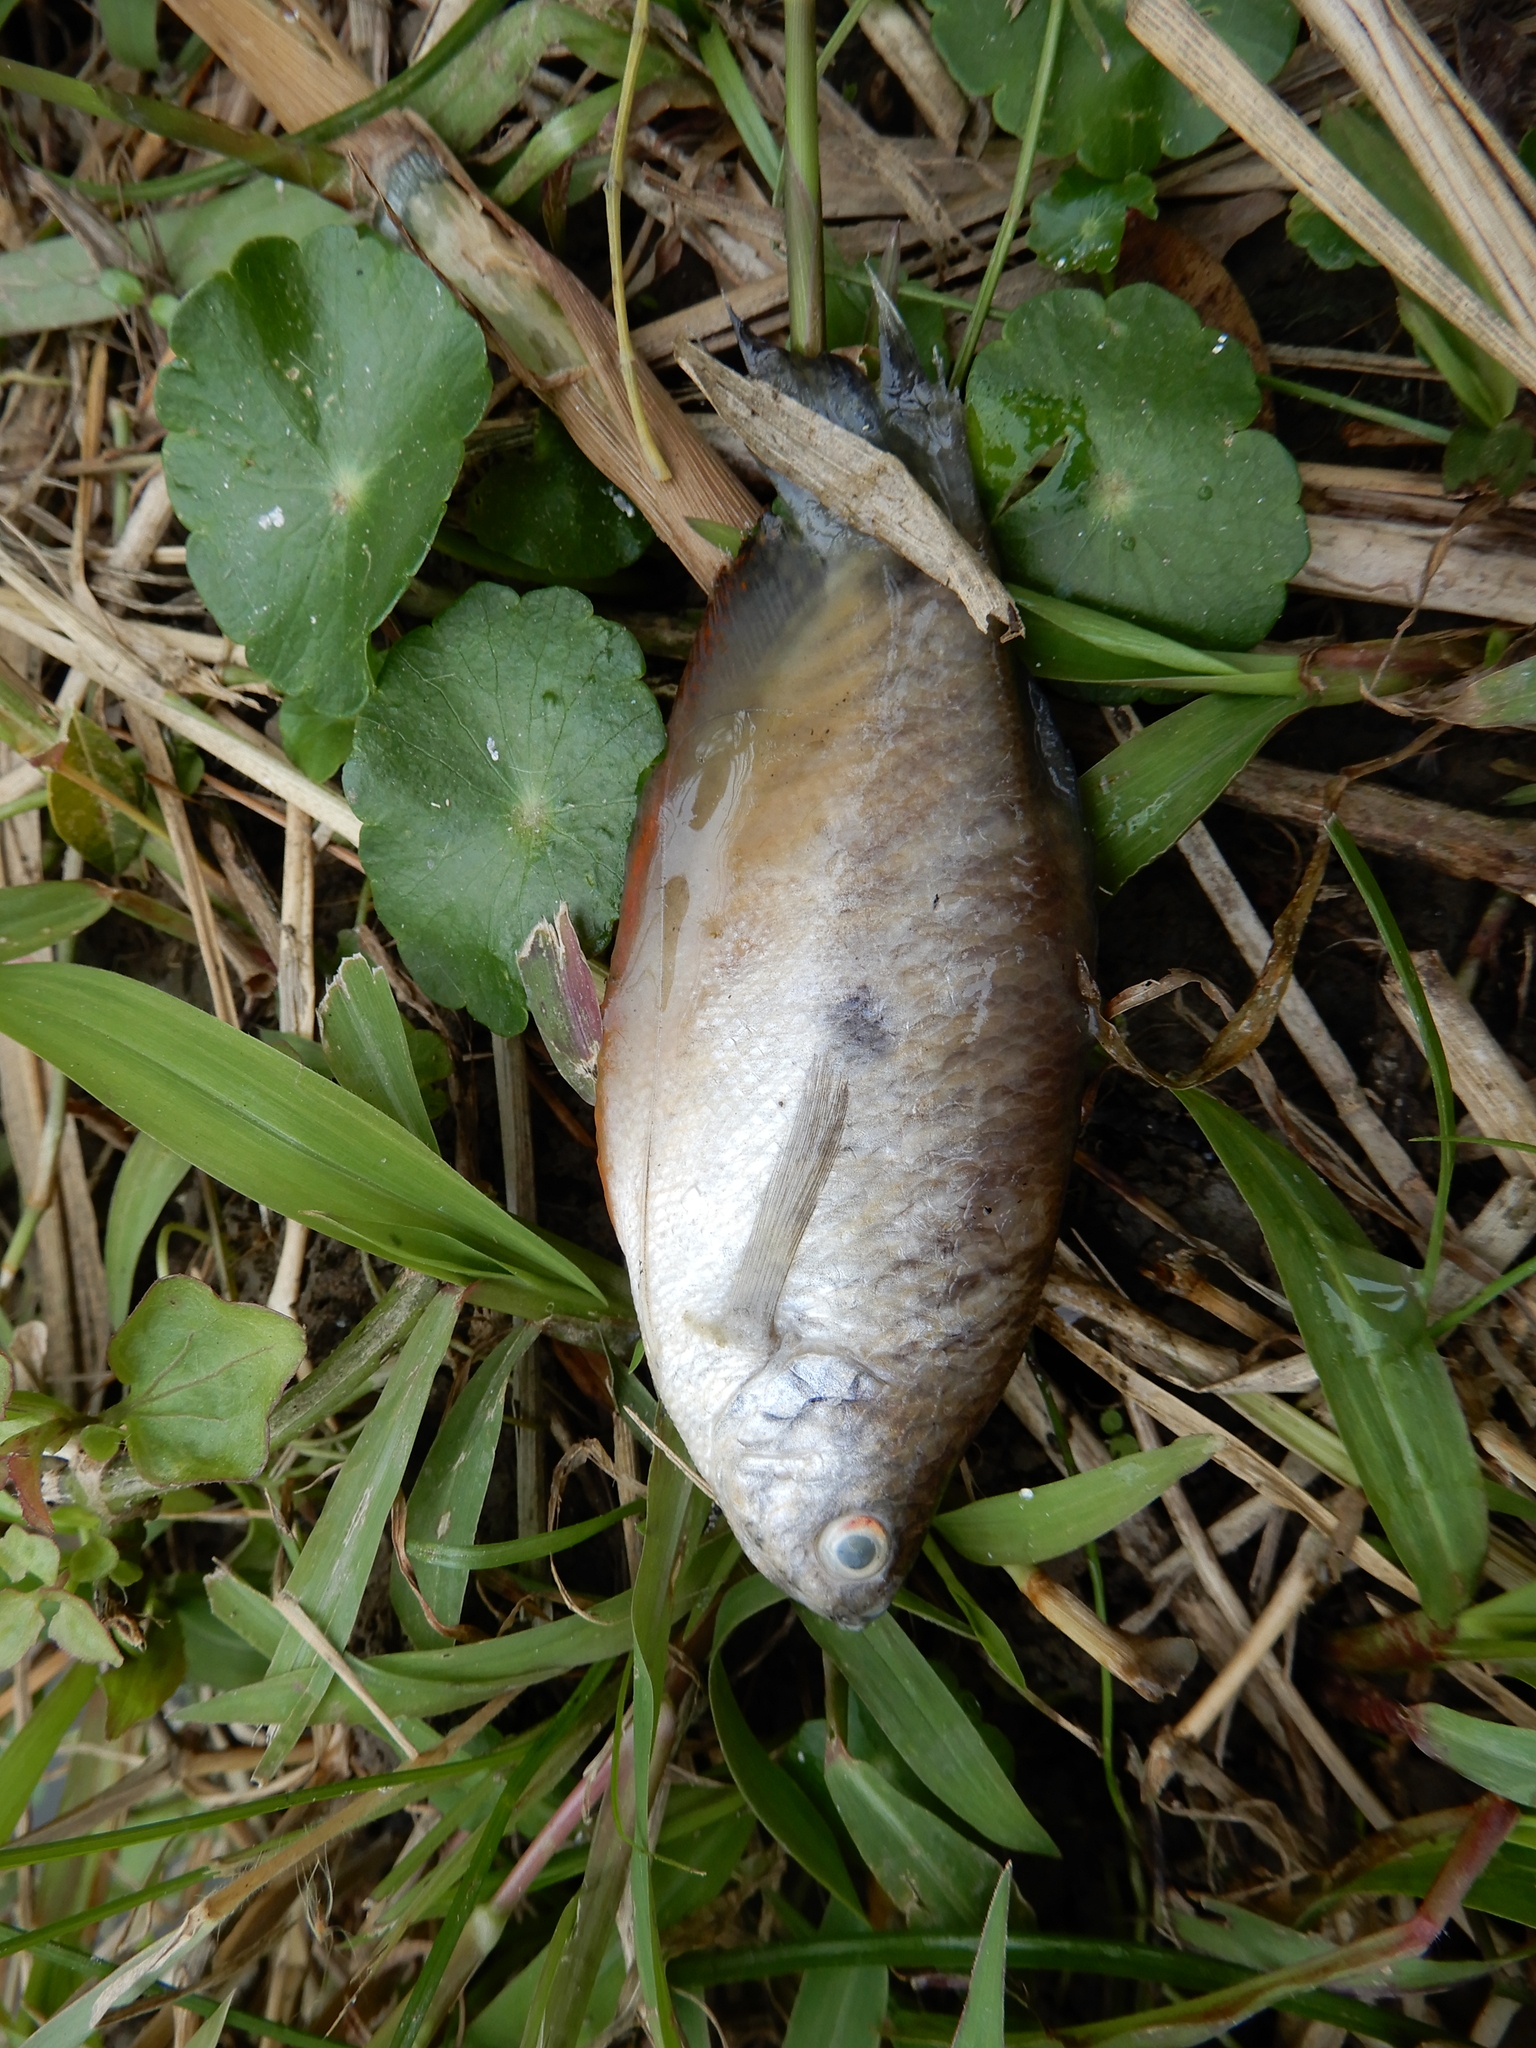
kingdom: Animalia
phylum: Chordata
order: Perciformes
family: Osphronemidae
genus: Trichopodus
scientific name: Trichopodus trichopterus
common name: Blue gourami
